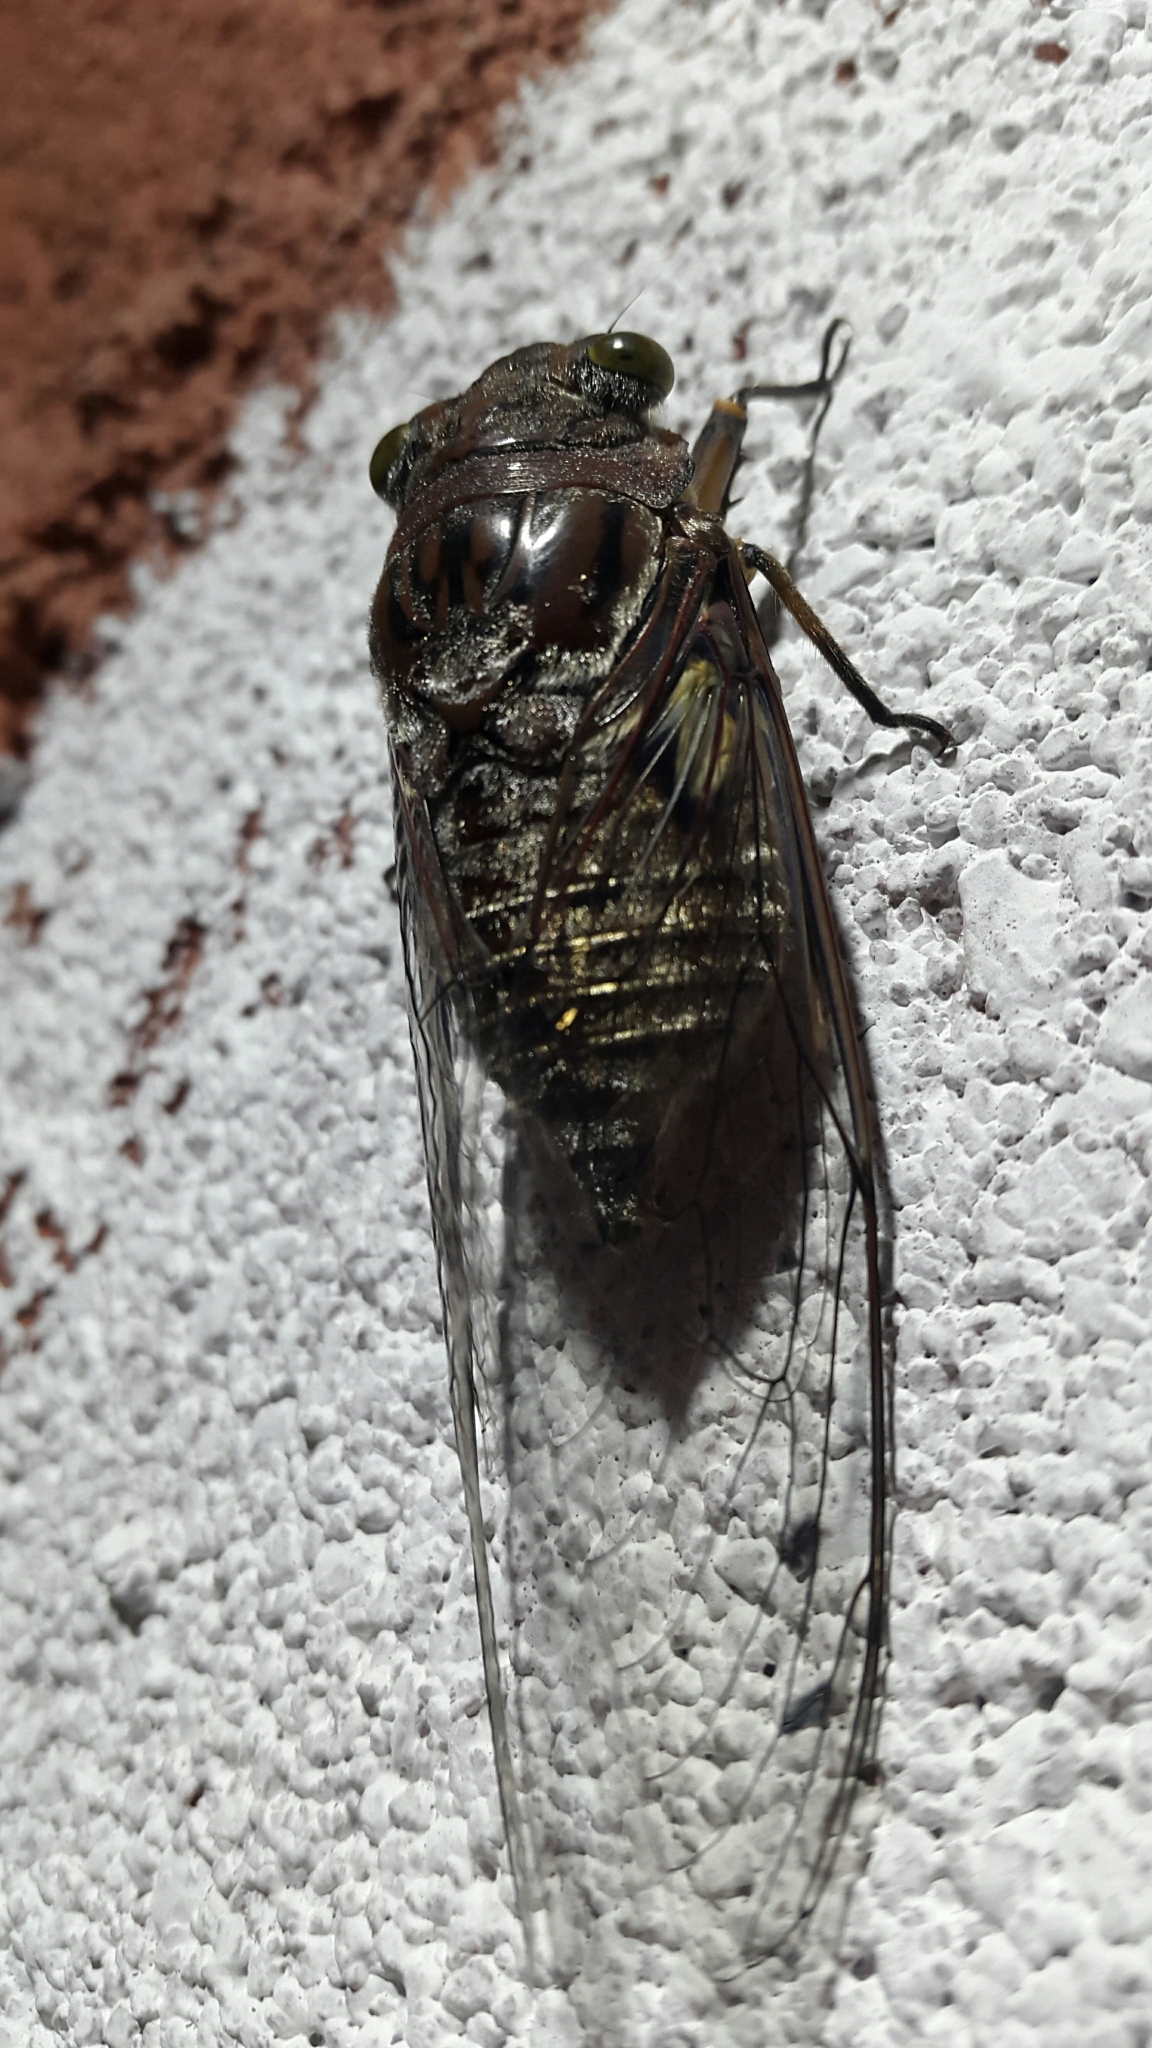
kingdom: Animalia
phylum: Arthropoda
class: Insecta
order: Hemiptera
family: Cicadidae
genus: Quesada
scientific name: Quesada gigas
